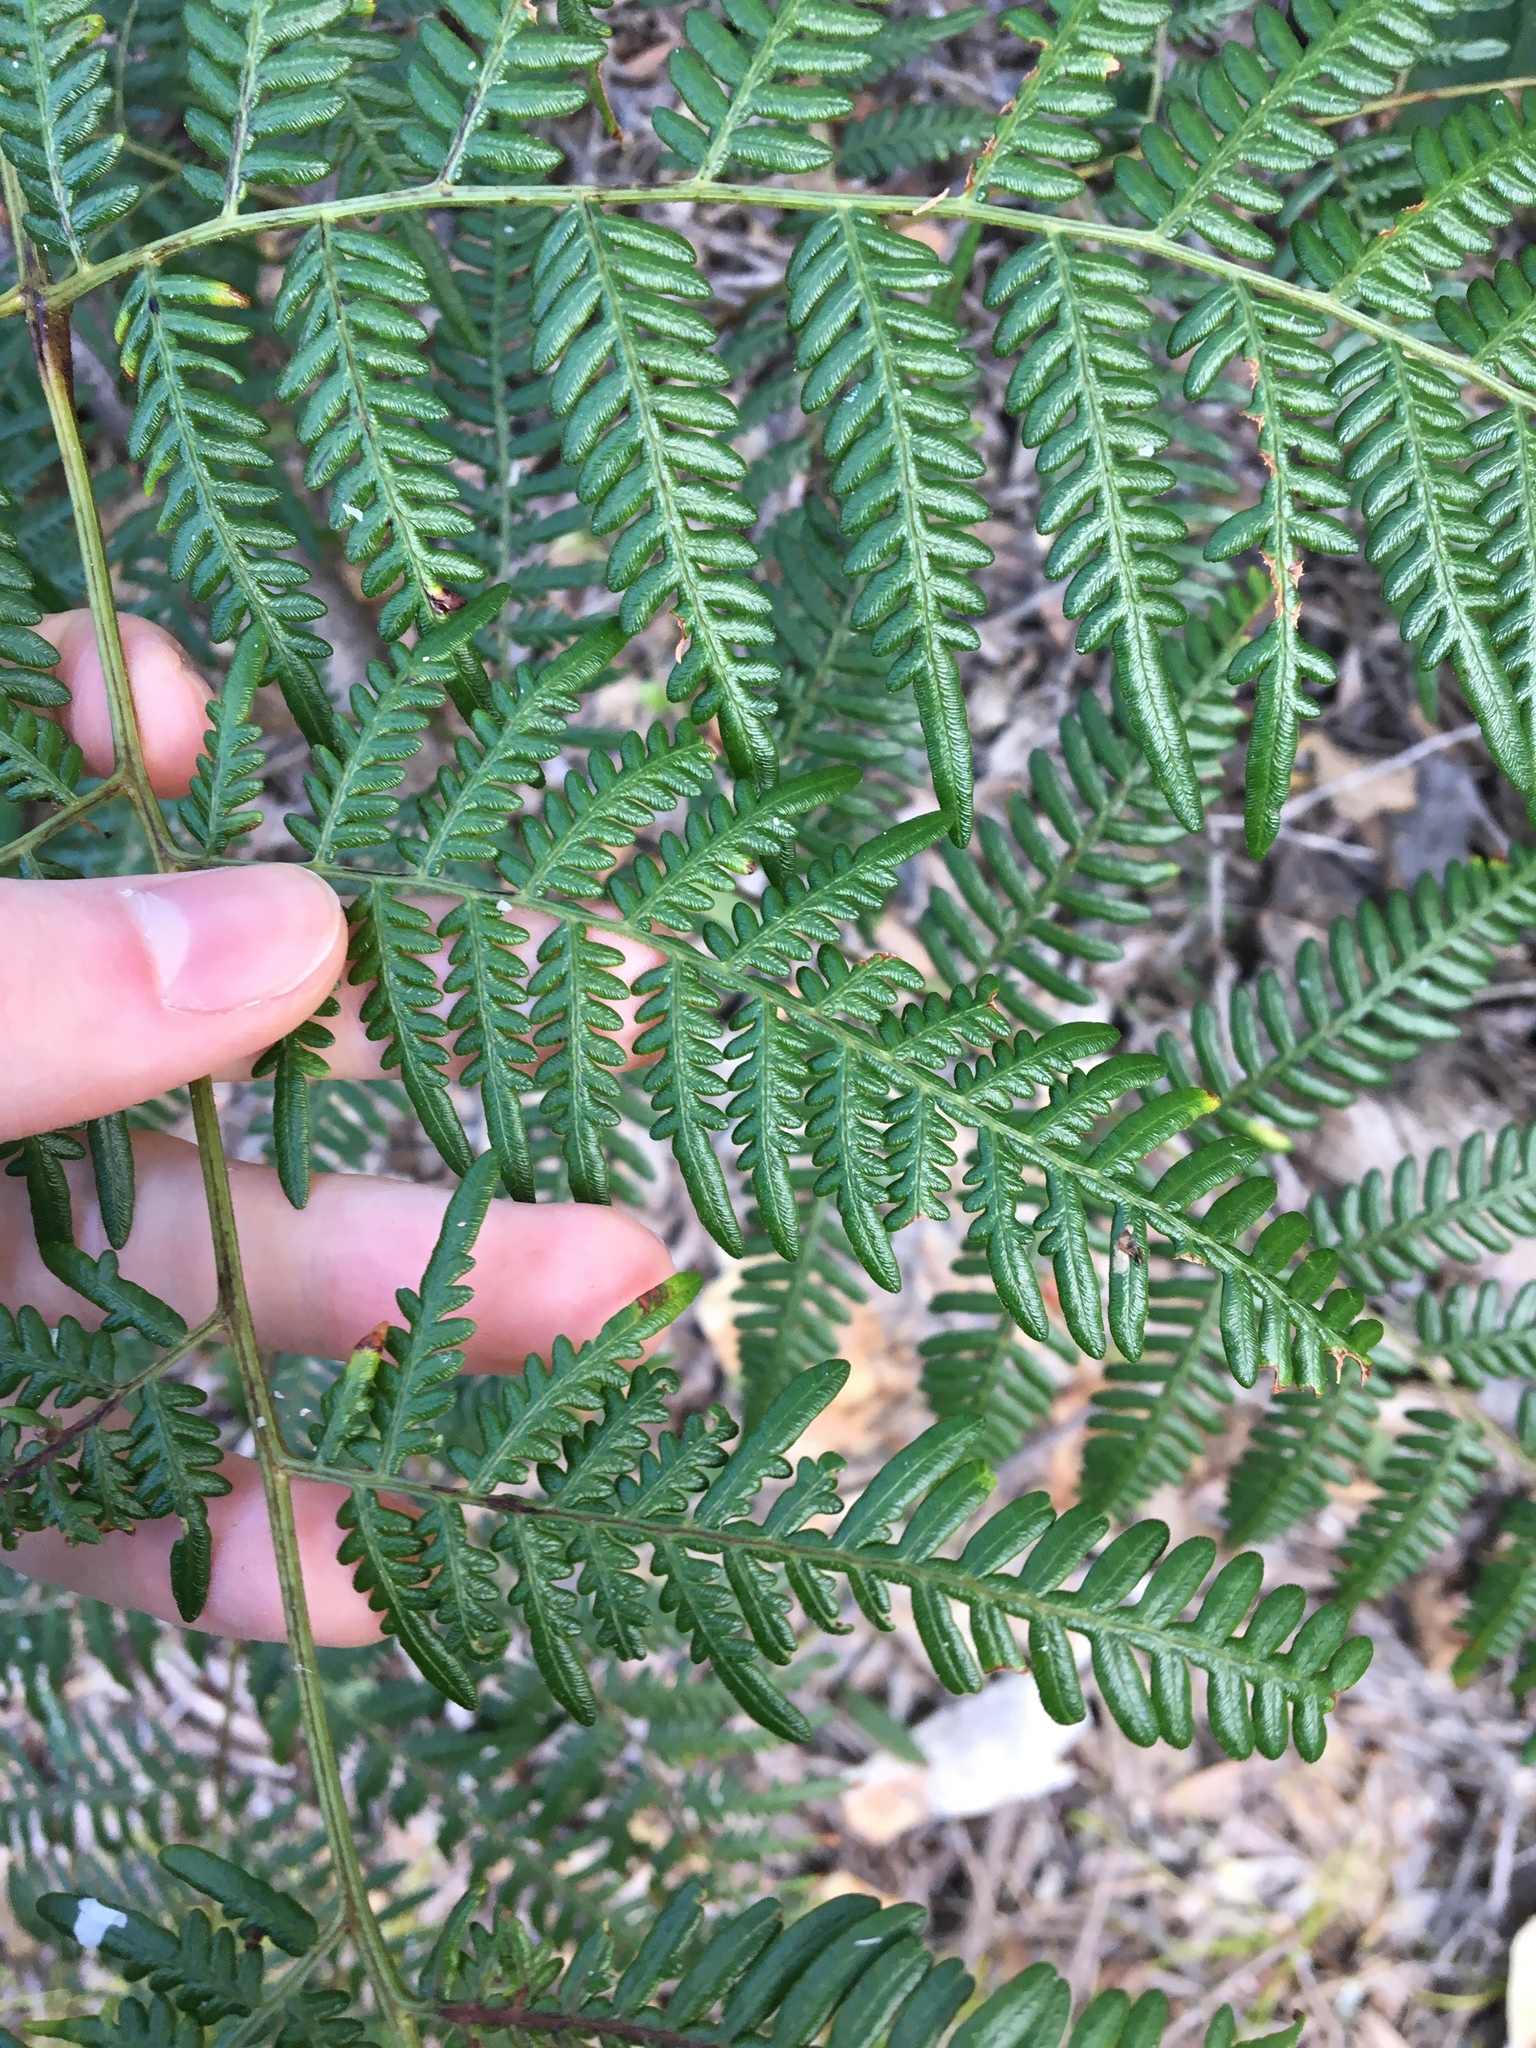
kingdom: Plantae
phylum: Tracheophyta
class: Polypodiopsida
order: Polypodiales
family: Dennstaedtiaceae
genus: Pteridium
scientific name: Pteridium esculentum
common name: Bracken fern
